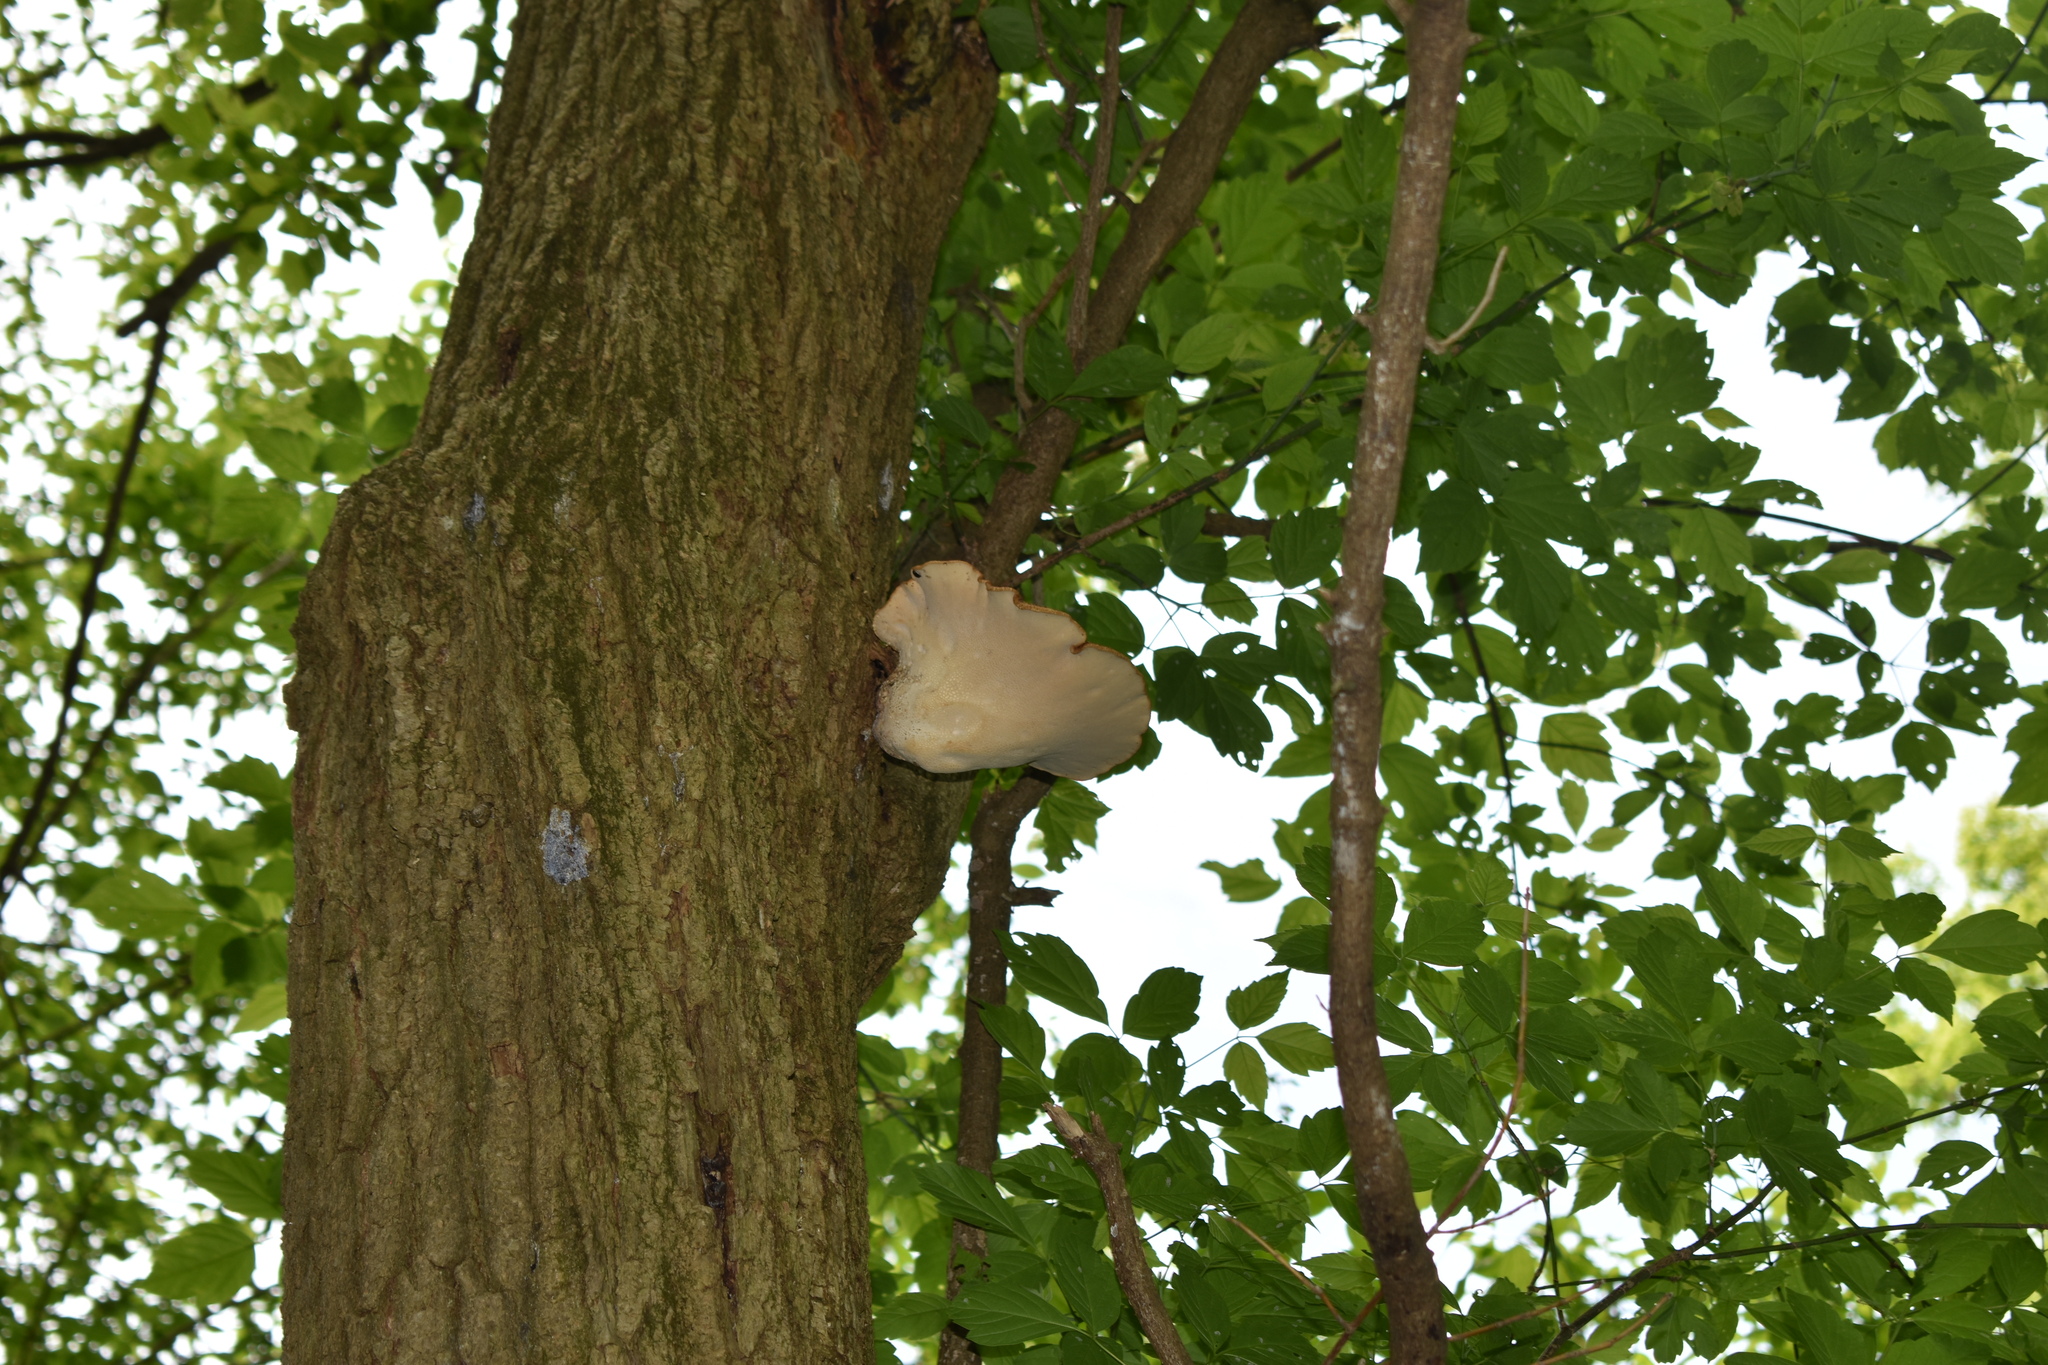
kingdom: Fungi
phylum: Basidiomycota
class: Agaricomycetes
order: Polyporales
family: Polyporaceae
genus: Cerioporus
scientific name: Cerioporus squamosus
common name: Dryad's saddle
